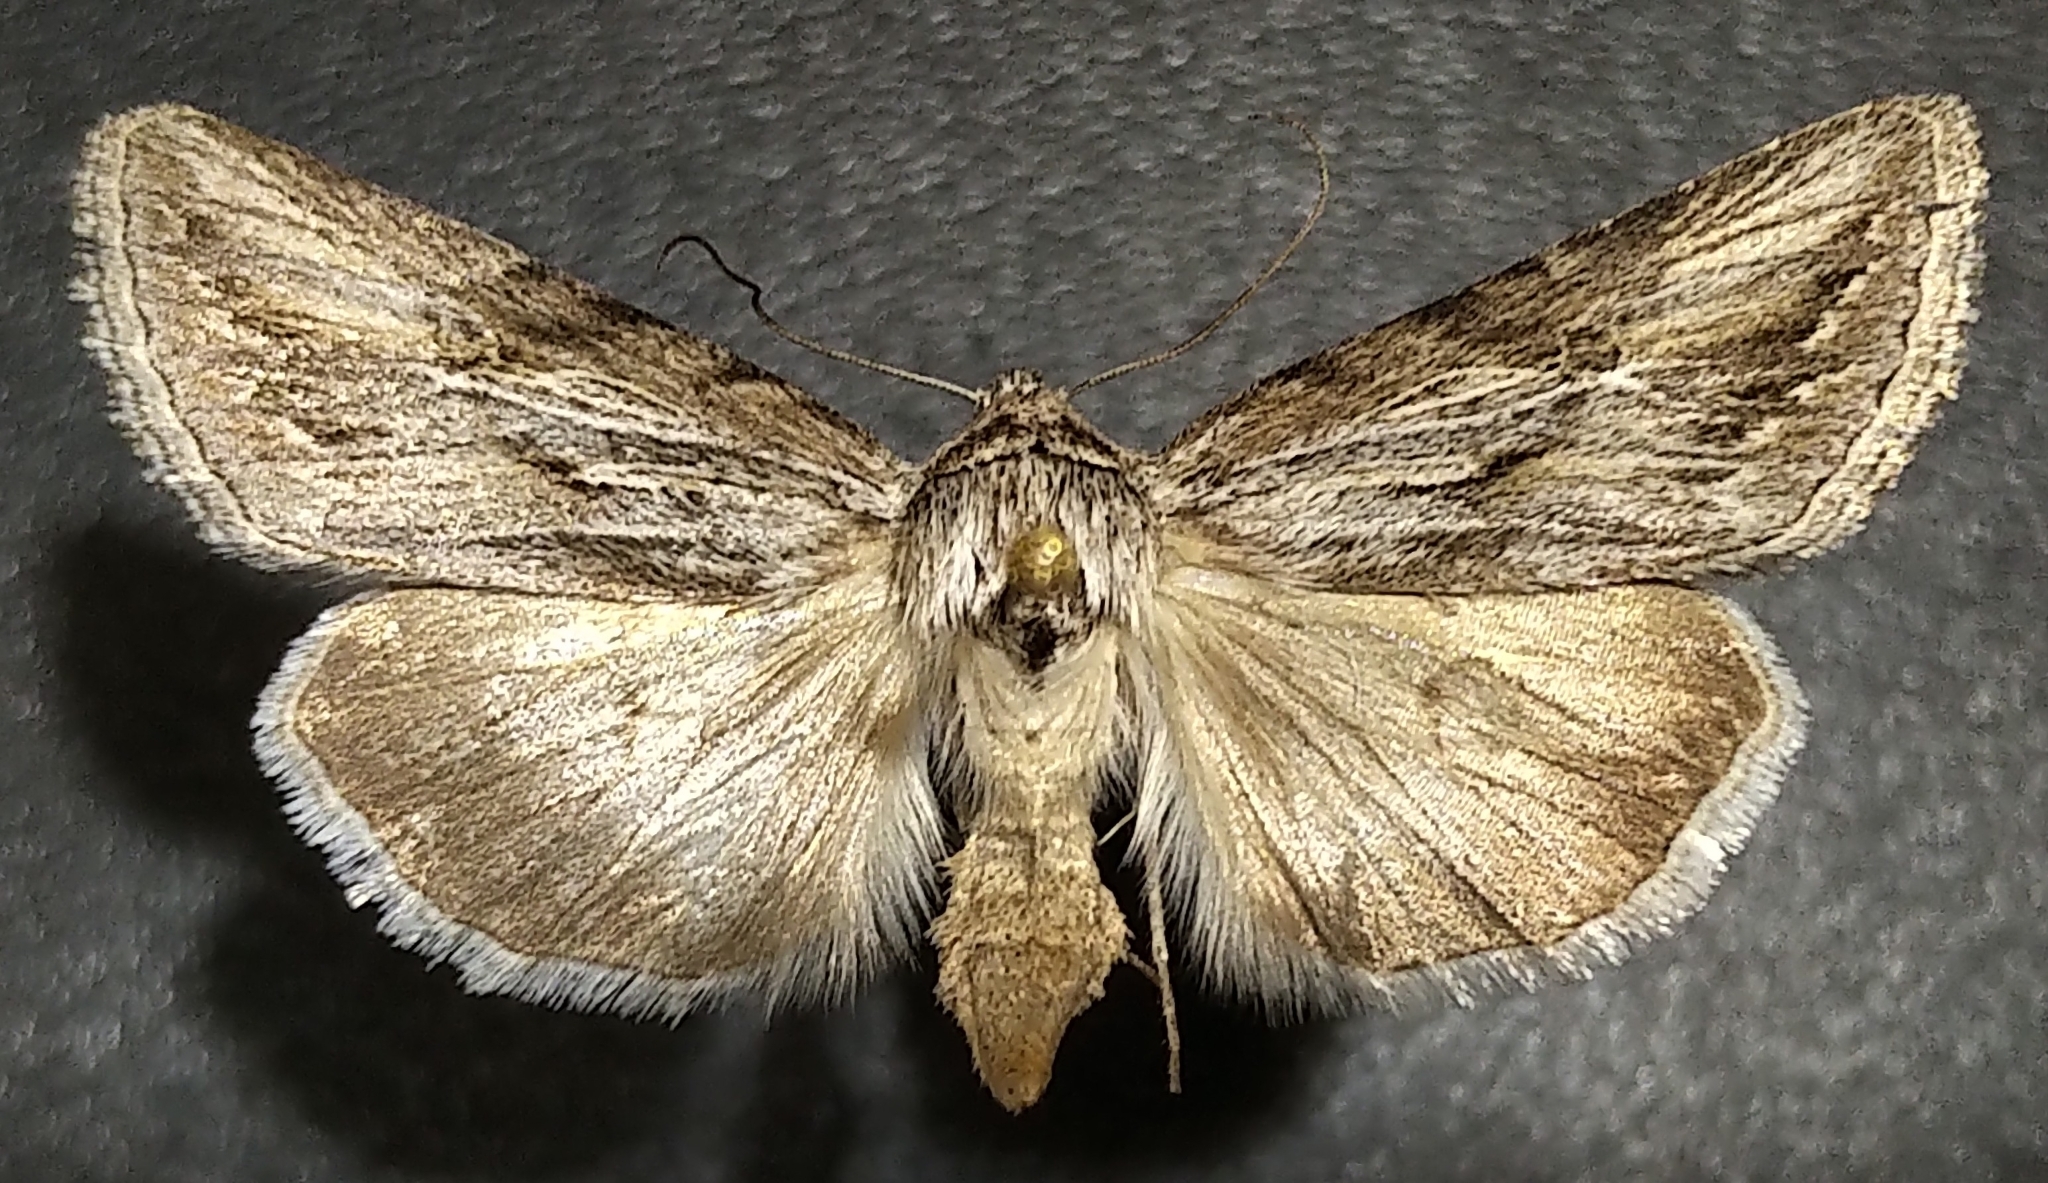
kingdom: Animalia
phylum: Arthropoda
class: Insecta
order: Lepidoptera
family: Noctuidae
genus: Sympistis
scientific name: Sympistis cibalis
